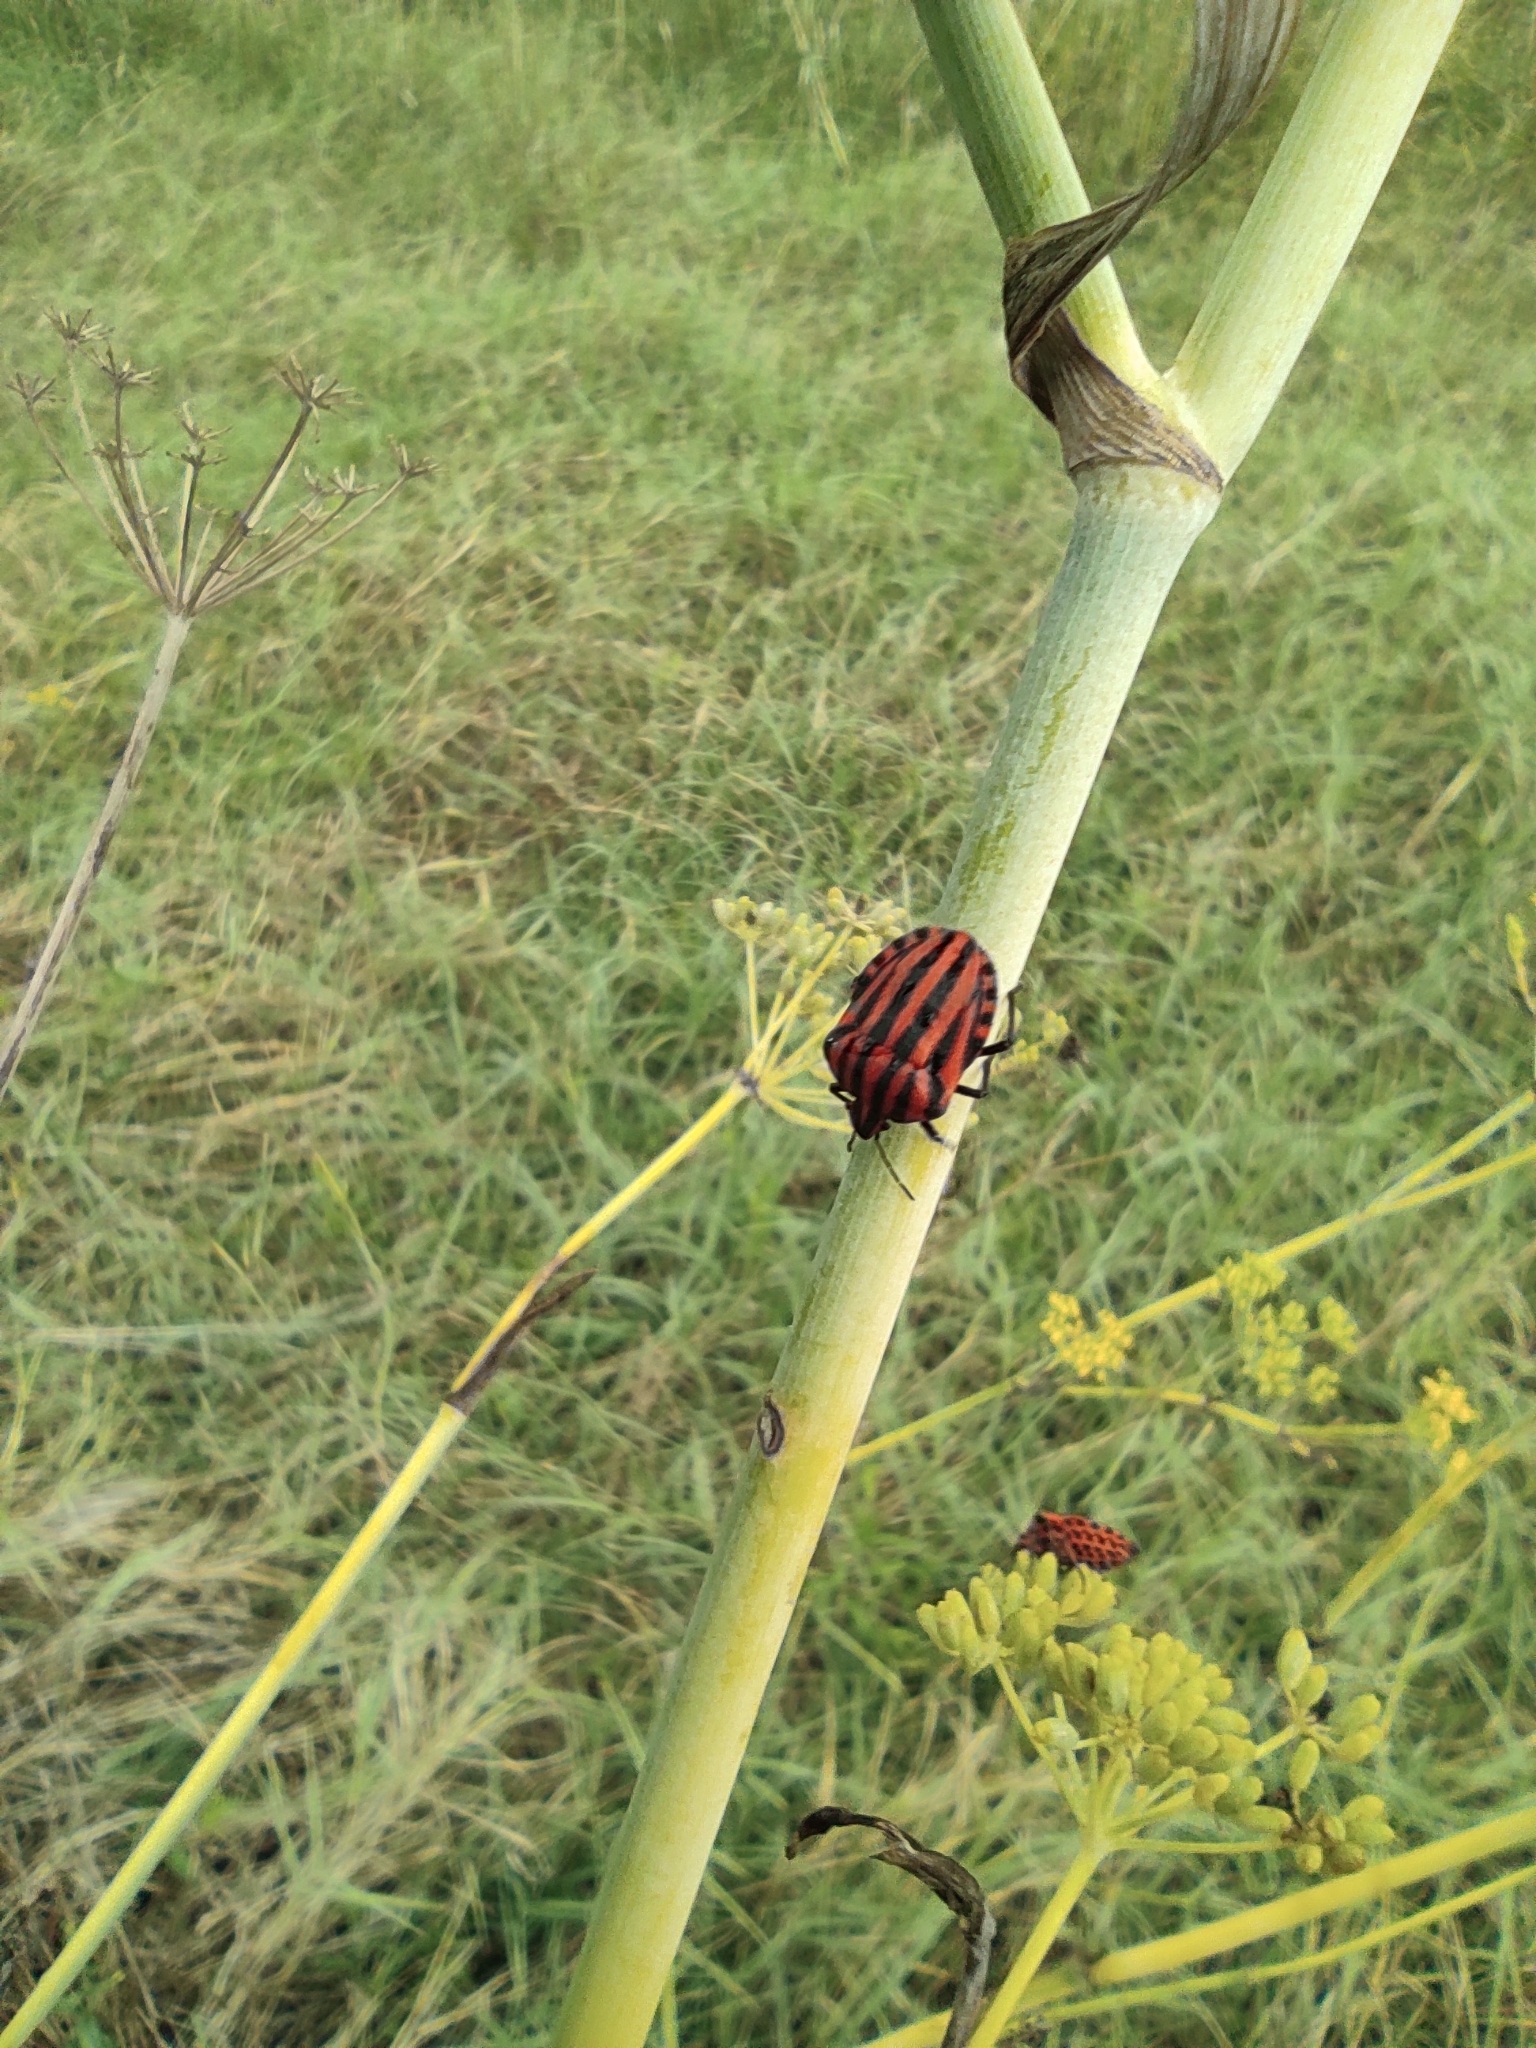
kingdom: Animalia
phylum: Arthropoda
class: Insecta
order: Hemiptera
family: Pentatomidae
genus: Graphosoma
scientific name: Graphosoma italicum
